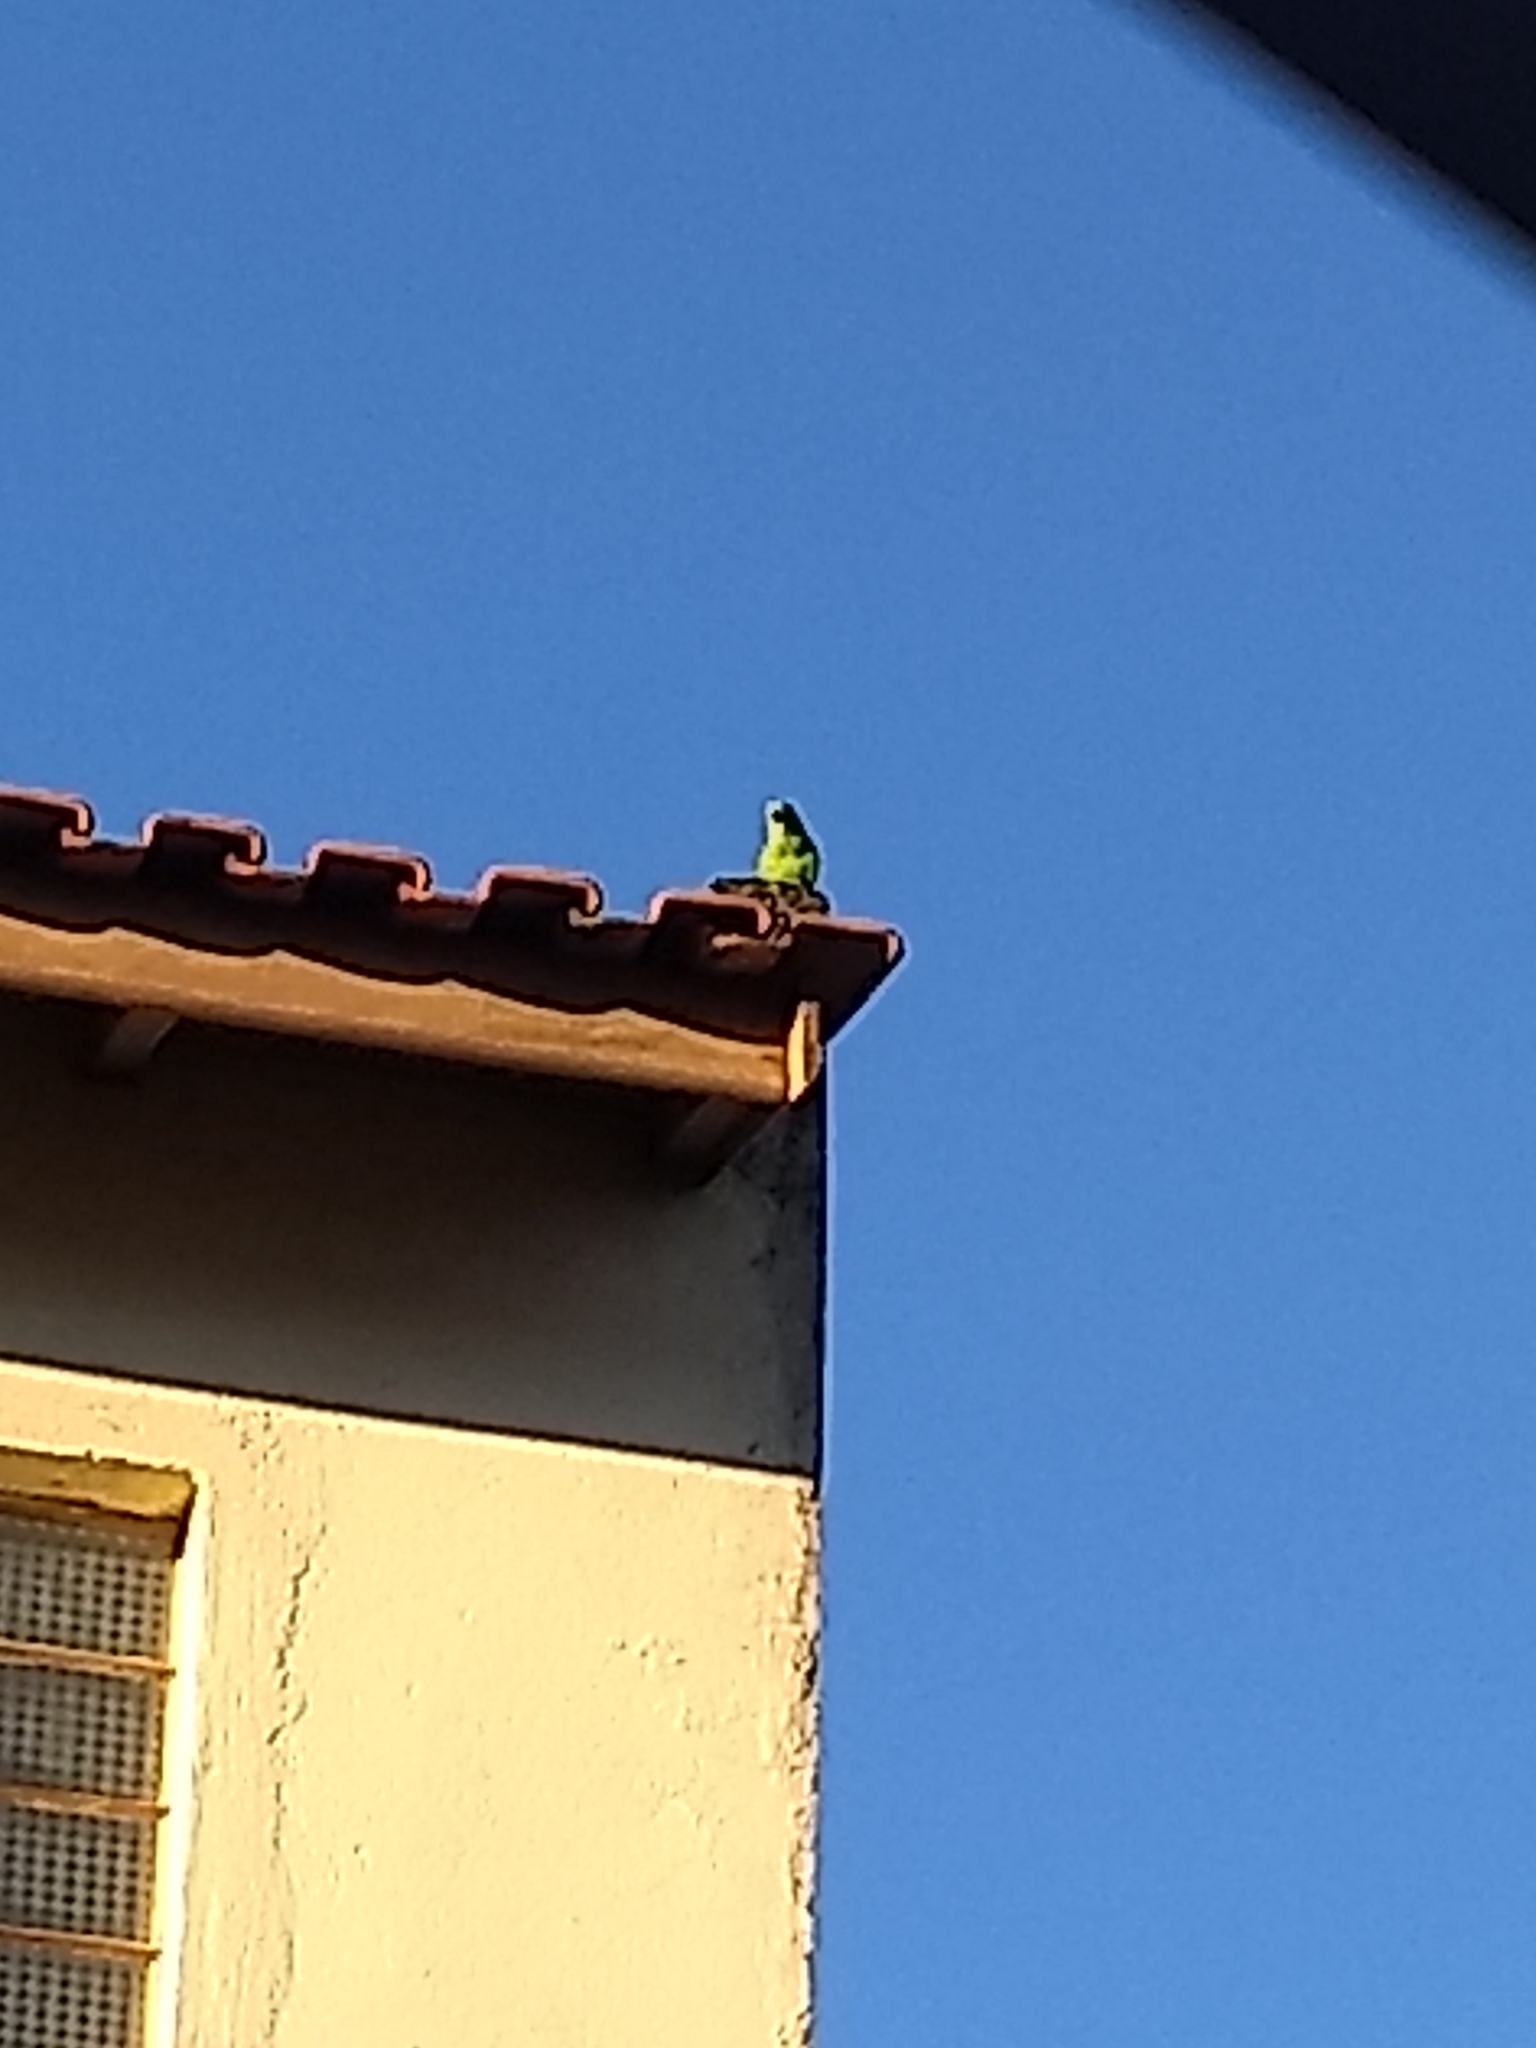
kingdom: Animalia
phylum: Chordata
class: Aves
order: Psittaciformes
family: Psittacidae
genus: Brotogeris
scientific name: Brotogeris tirica
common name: Plain parakeet
